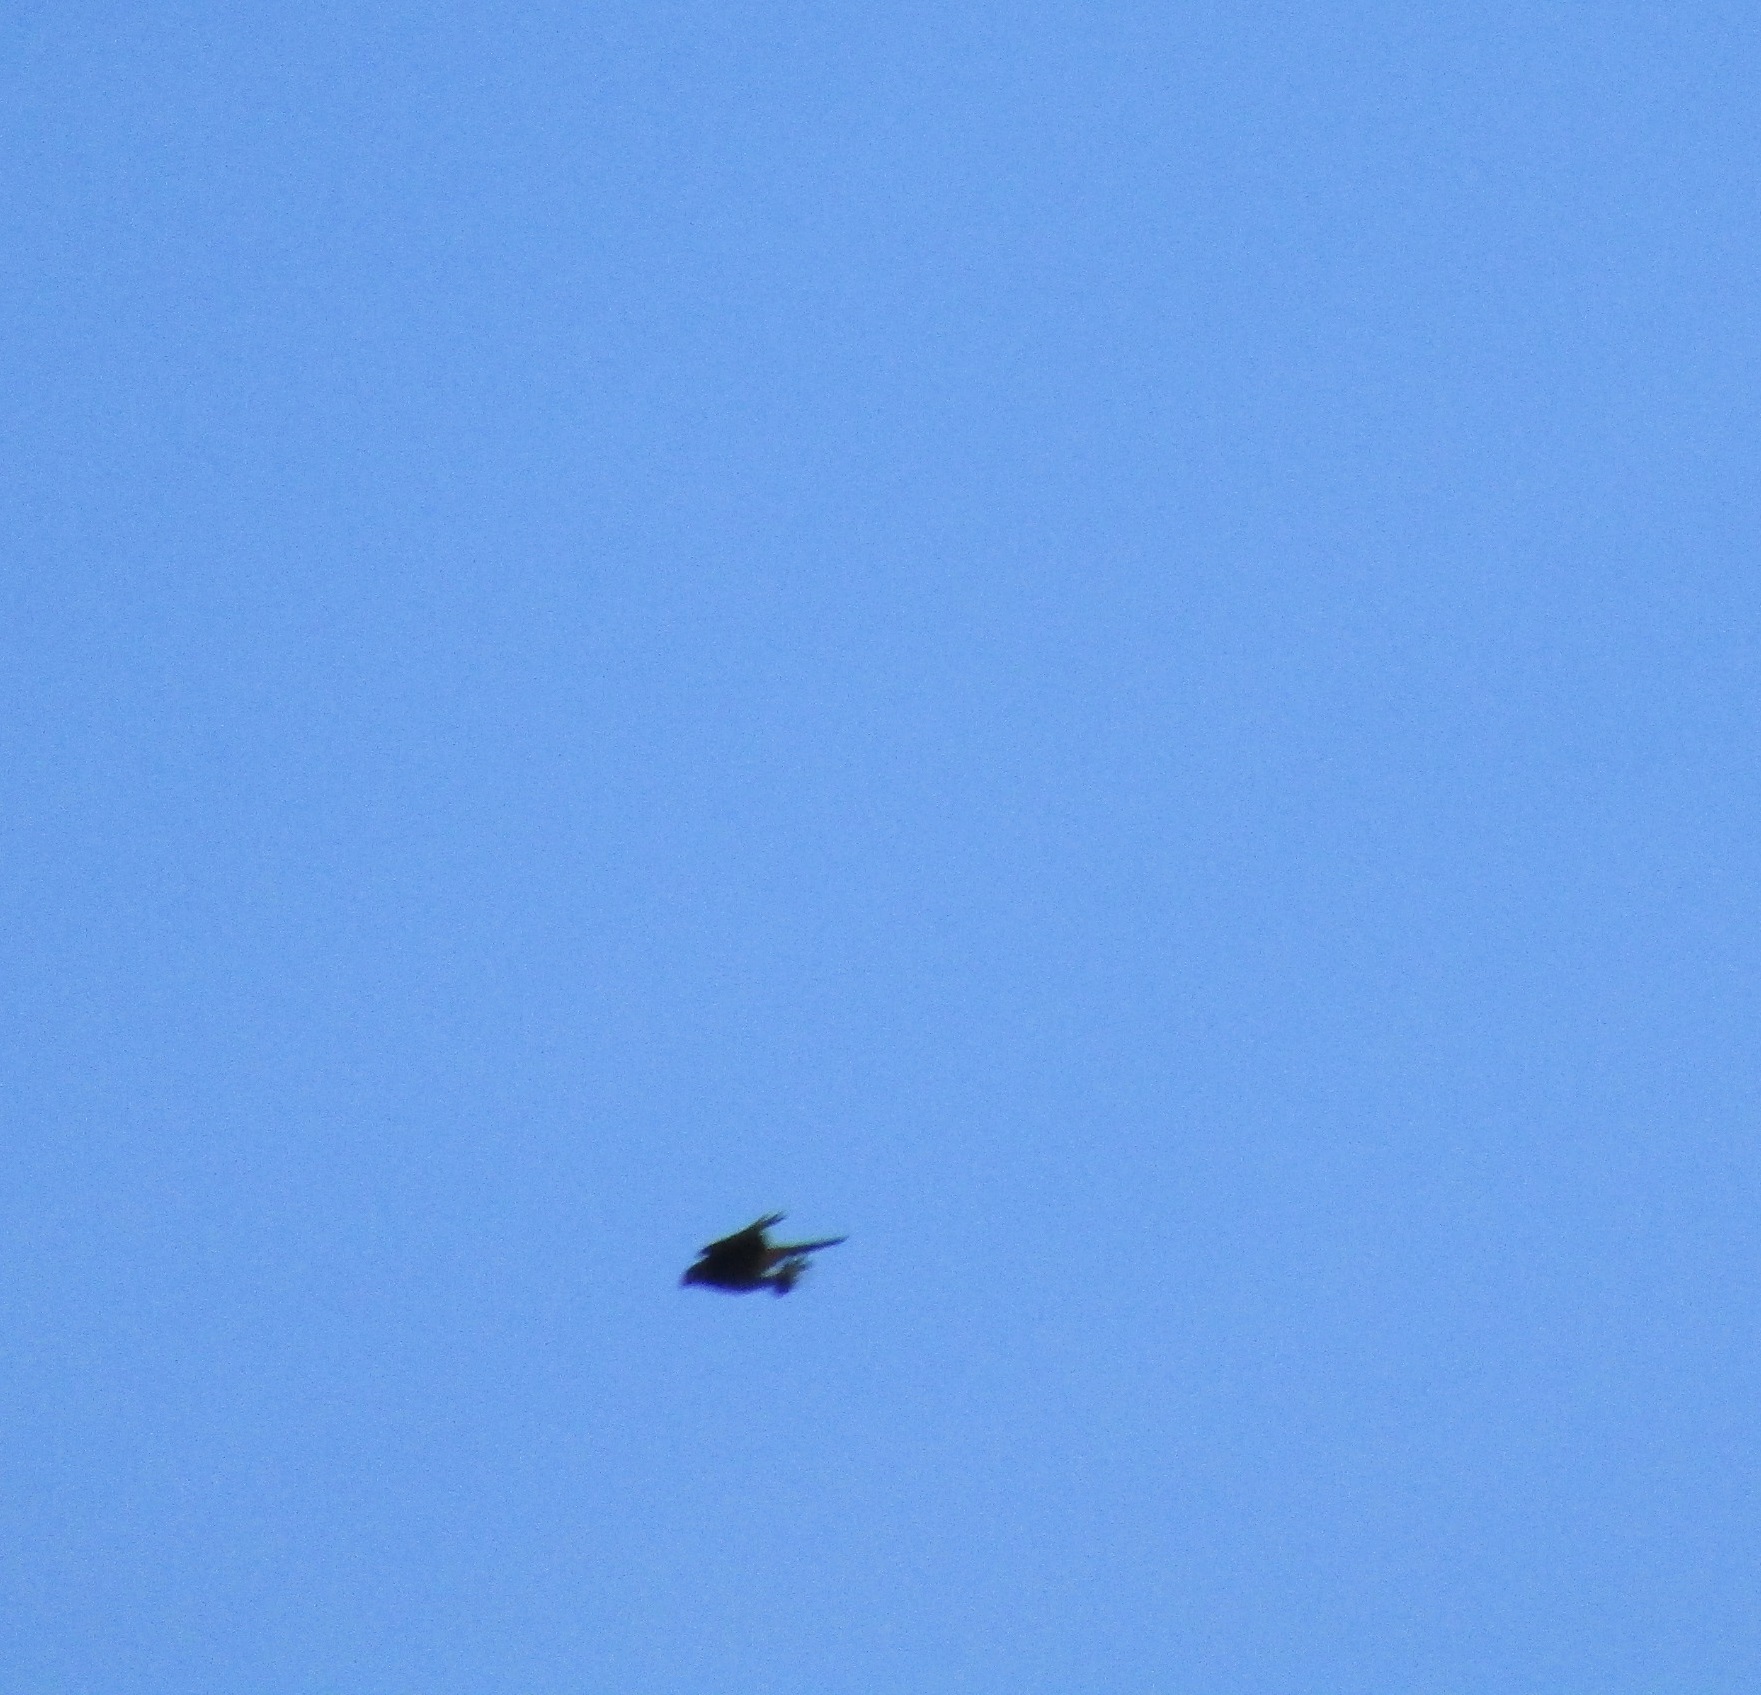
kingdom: Animalia
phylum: Chordata
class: Aves
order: Falconiformes
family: Falconidae
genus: Falco
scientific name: Falco novaeseelandiae
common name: New zealand falcon
